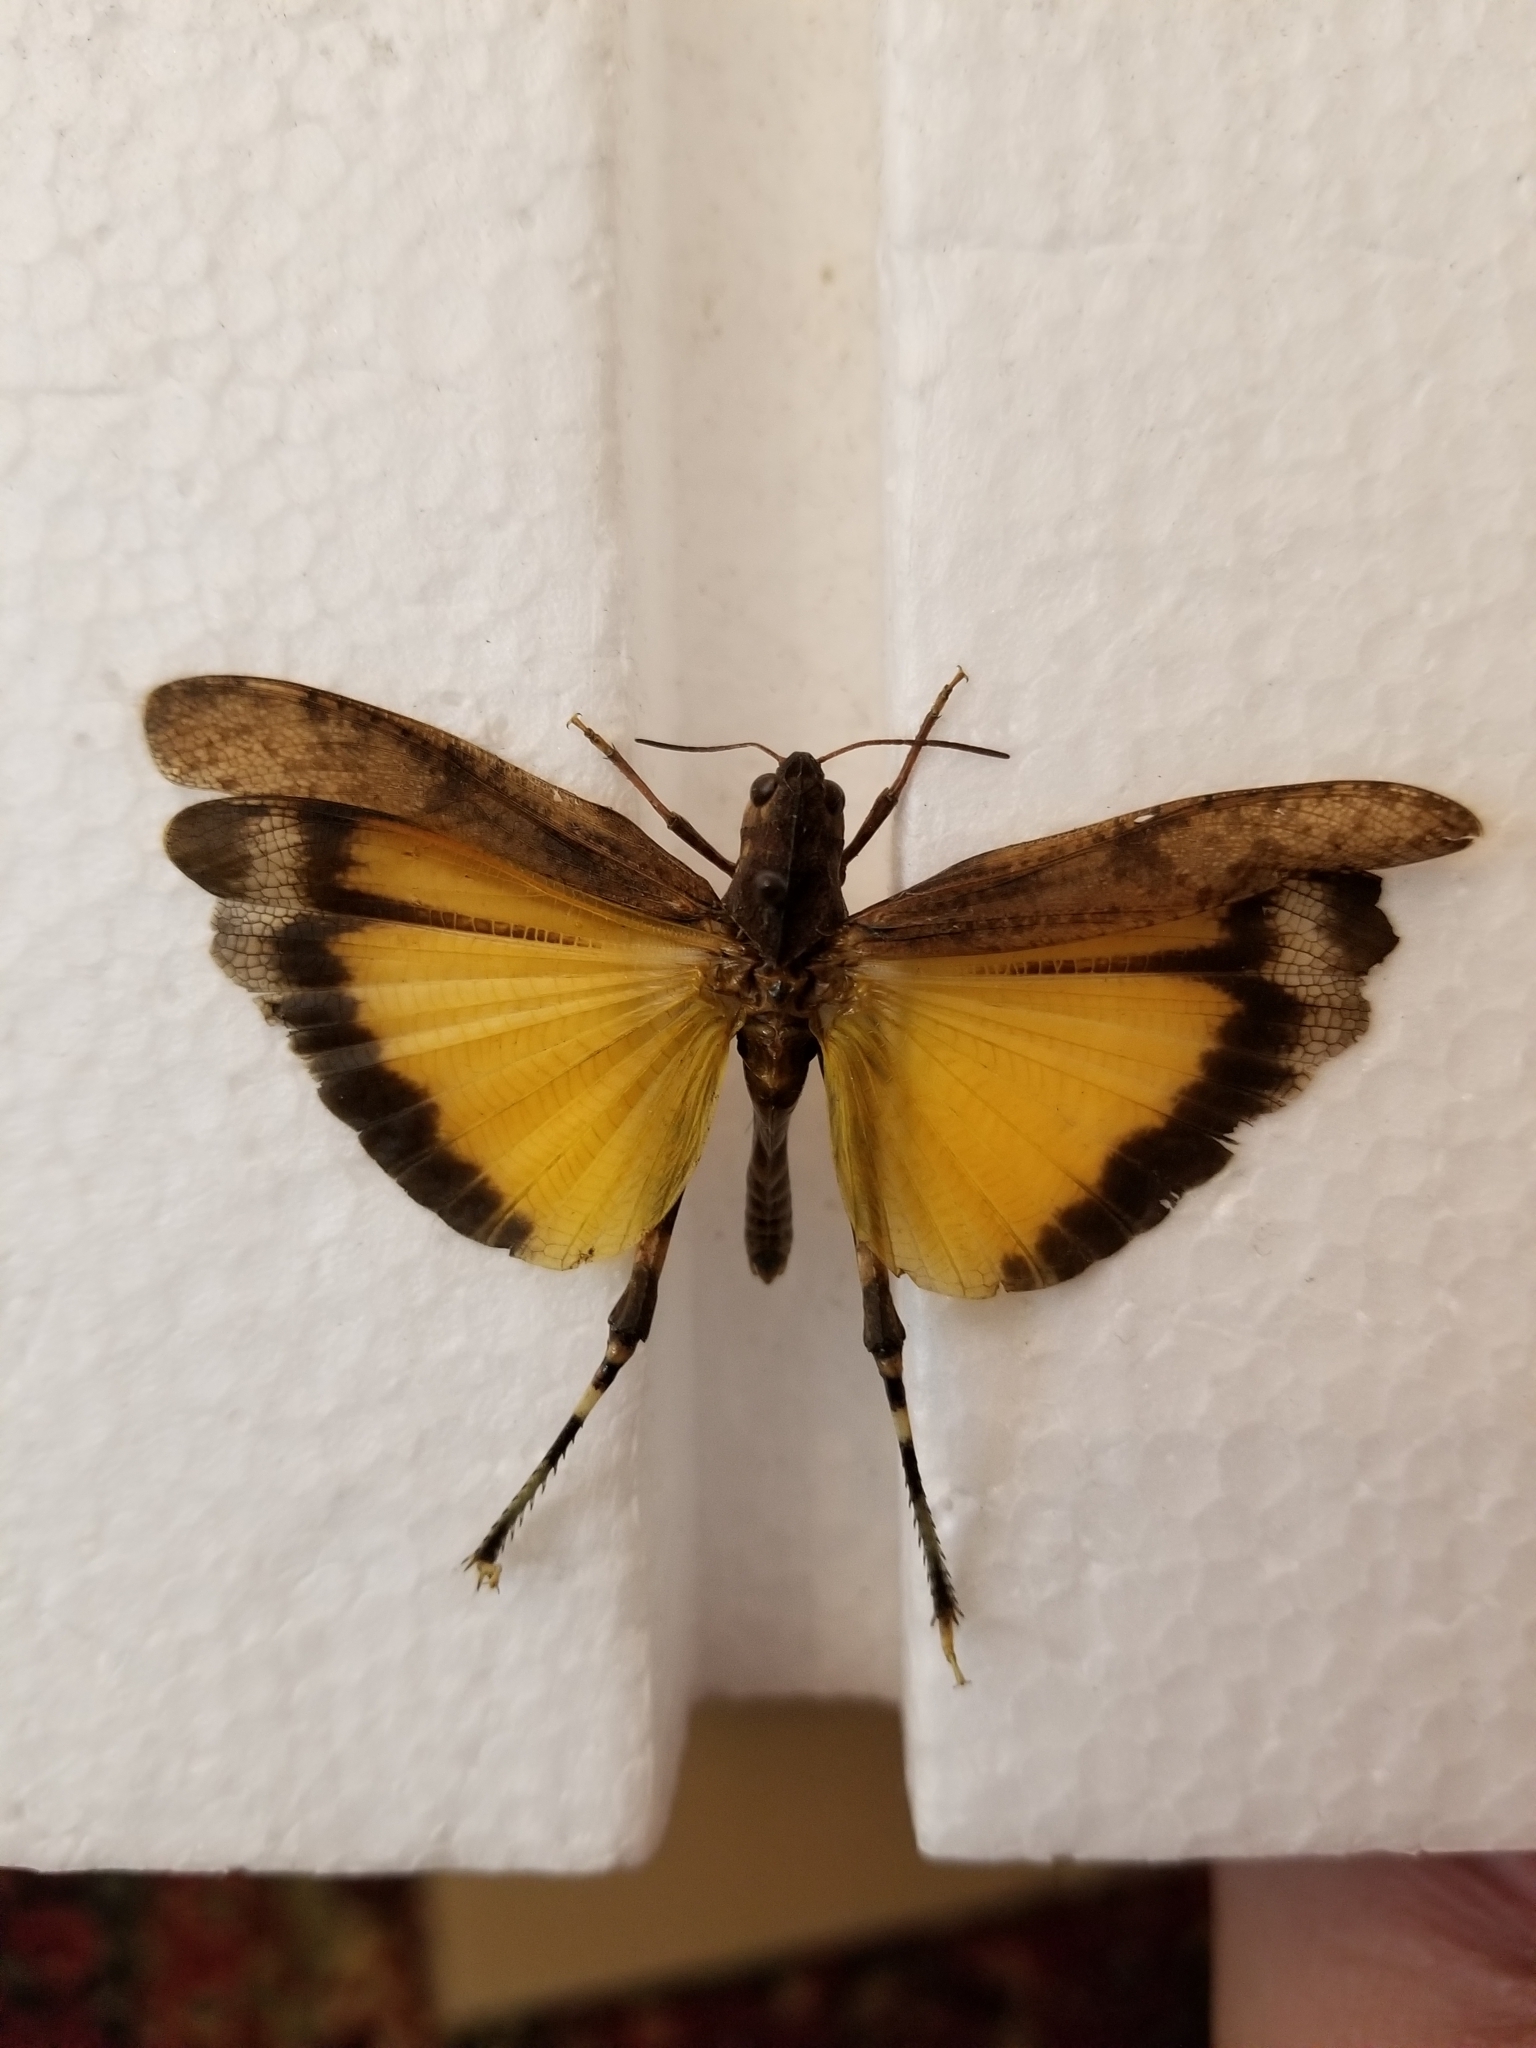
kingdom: Animalia
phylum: Arthropoda
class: Insecta
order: Orthoptera
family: Acrididae
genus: Arphia
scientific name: Arphia simplex
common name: Plains yellow-winged grasshopper
